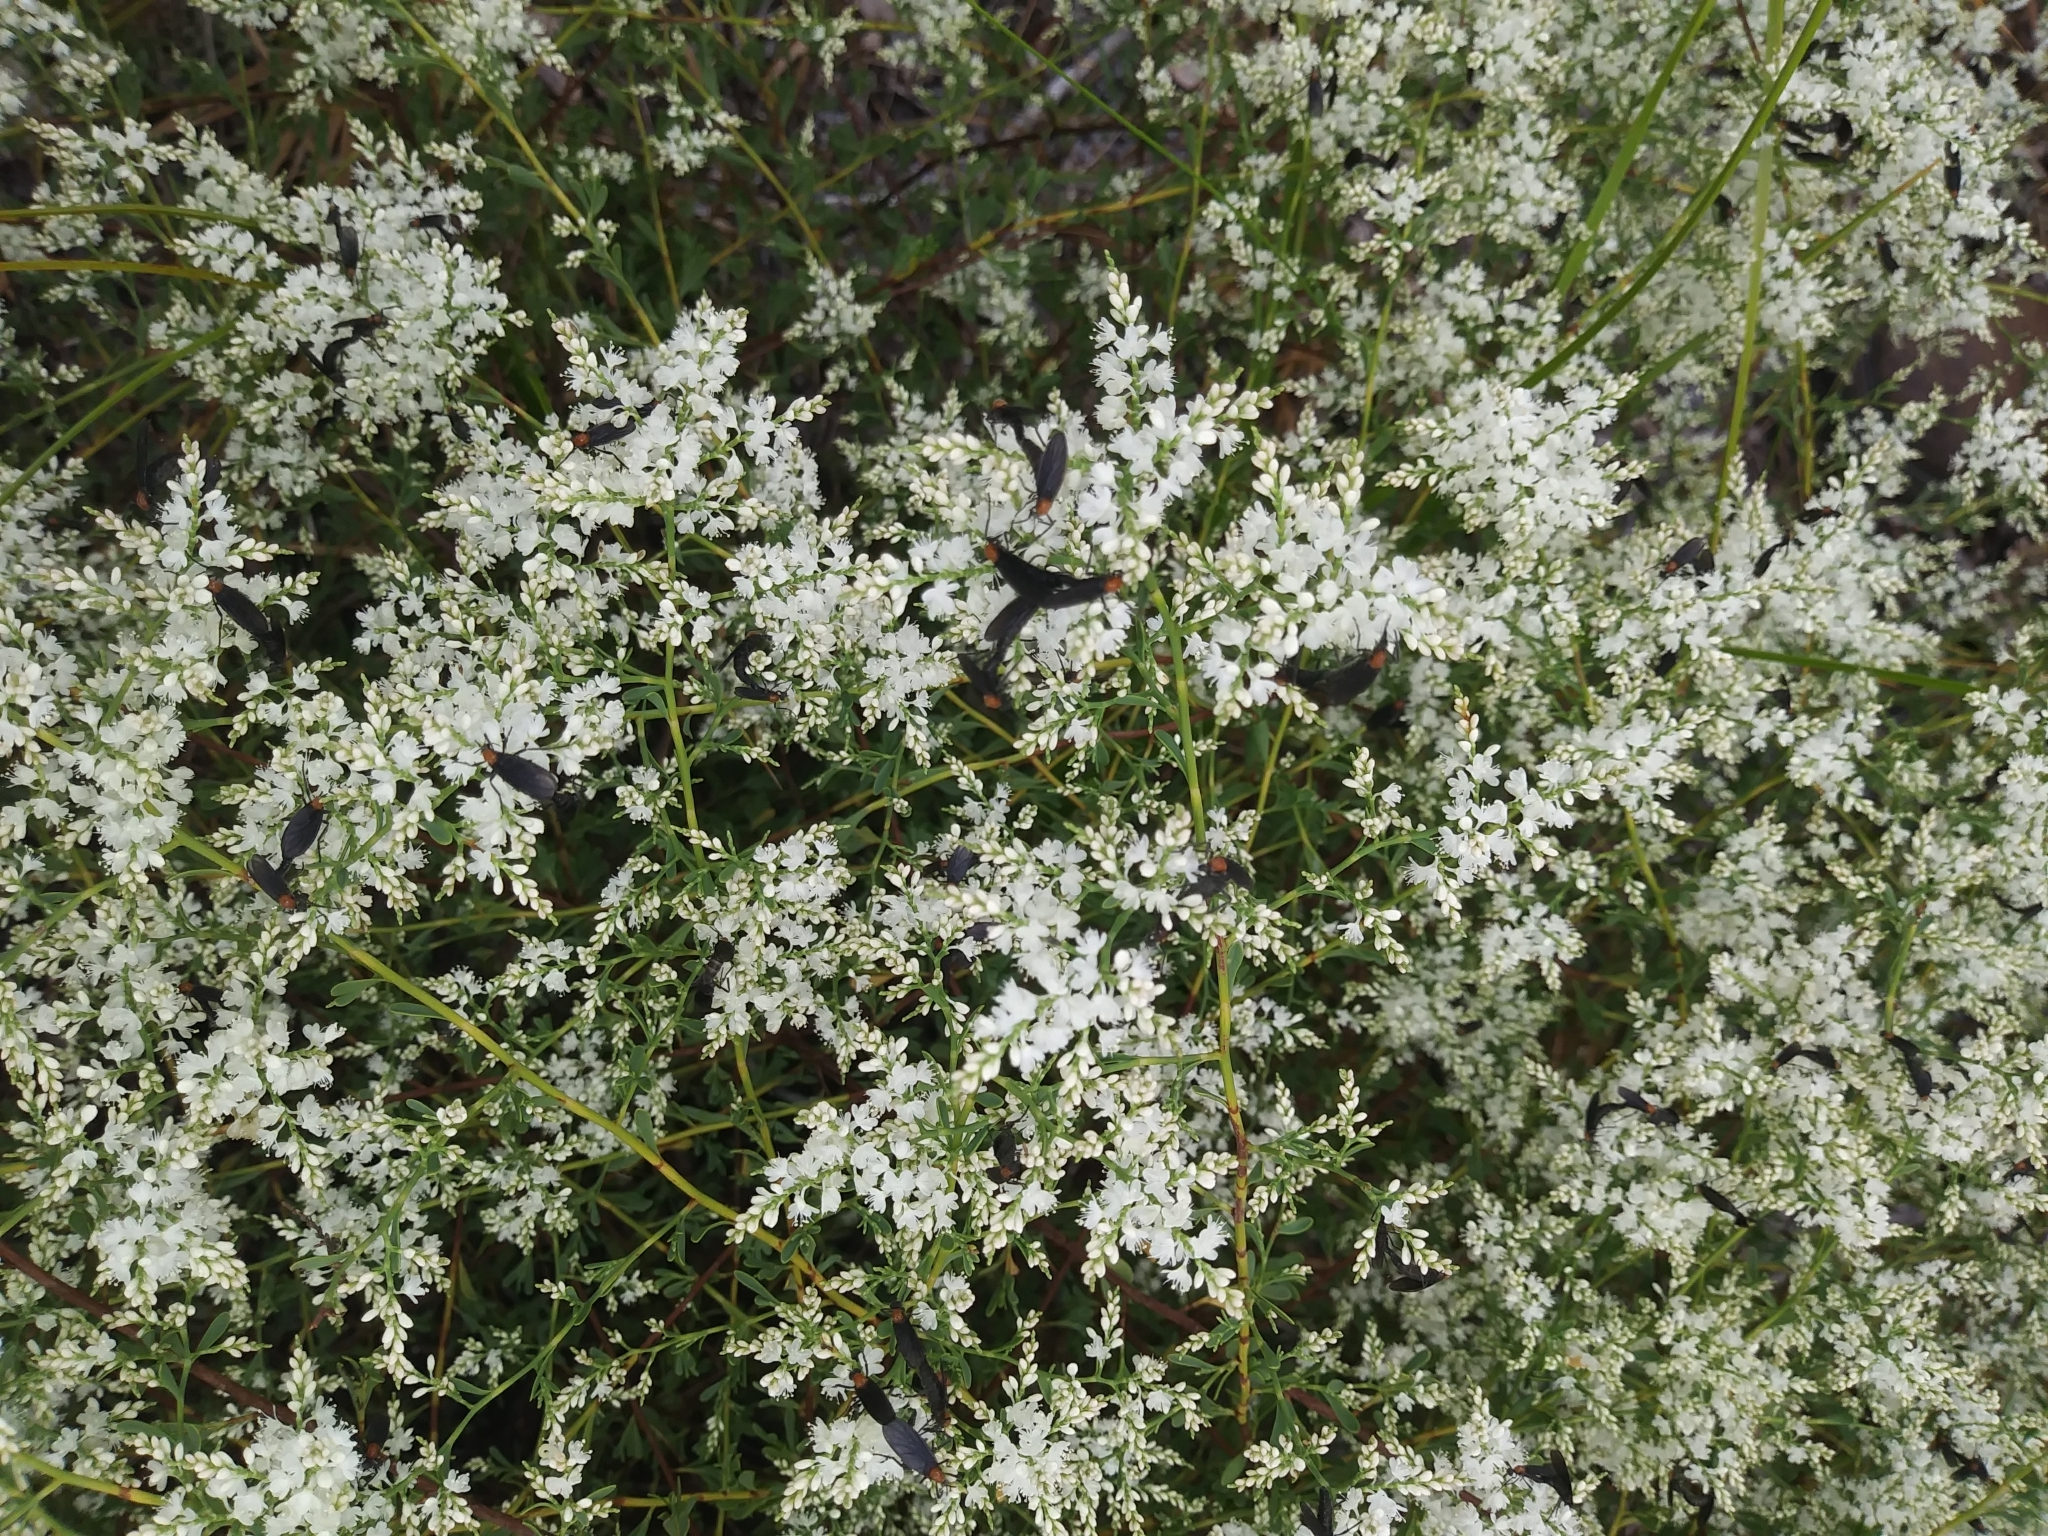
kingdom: Plantae
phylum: Tracheophyta
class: Magnoliopsida
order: Caryophyllales
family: Polygonaceae
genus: Polygonella
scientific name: Polygonella polygama
